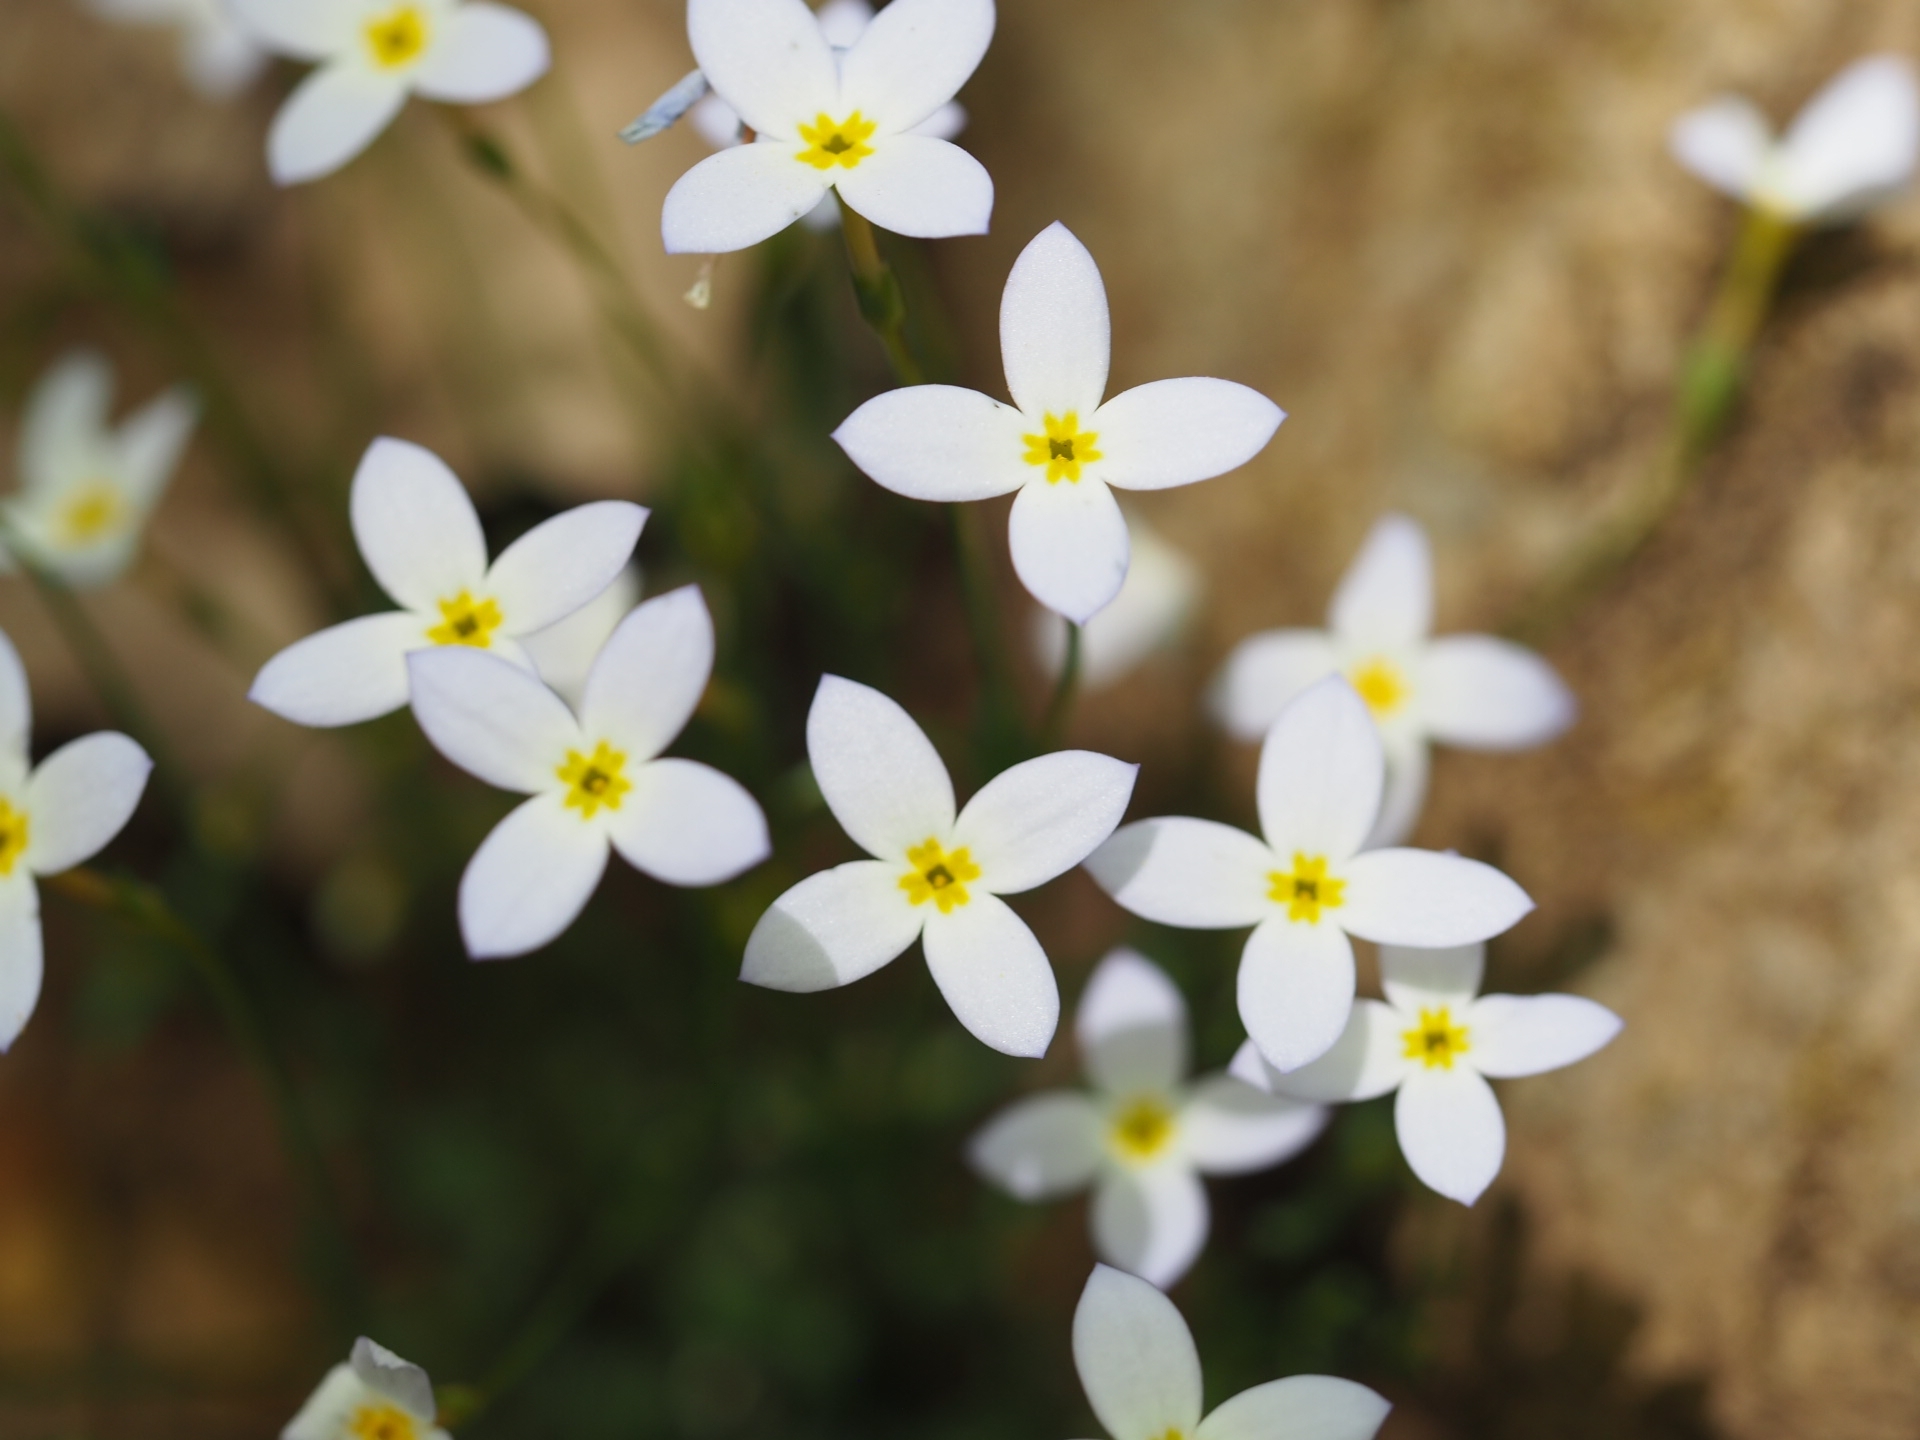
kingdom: Plantae
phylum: Tracheophyta
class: Magnoliopsida
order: Gentianales
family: Rubiaceae
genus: Houstonia
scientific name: Houstonia caerulea
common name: Bluets
